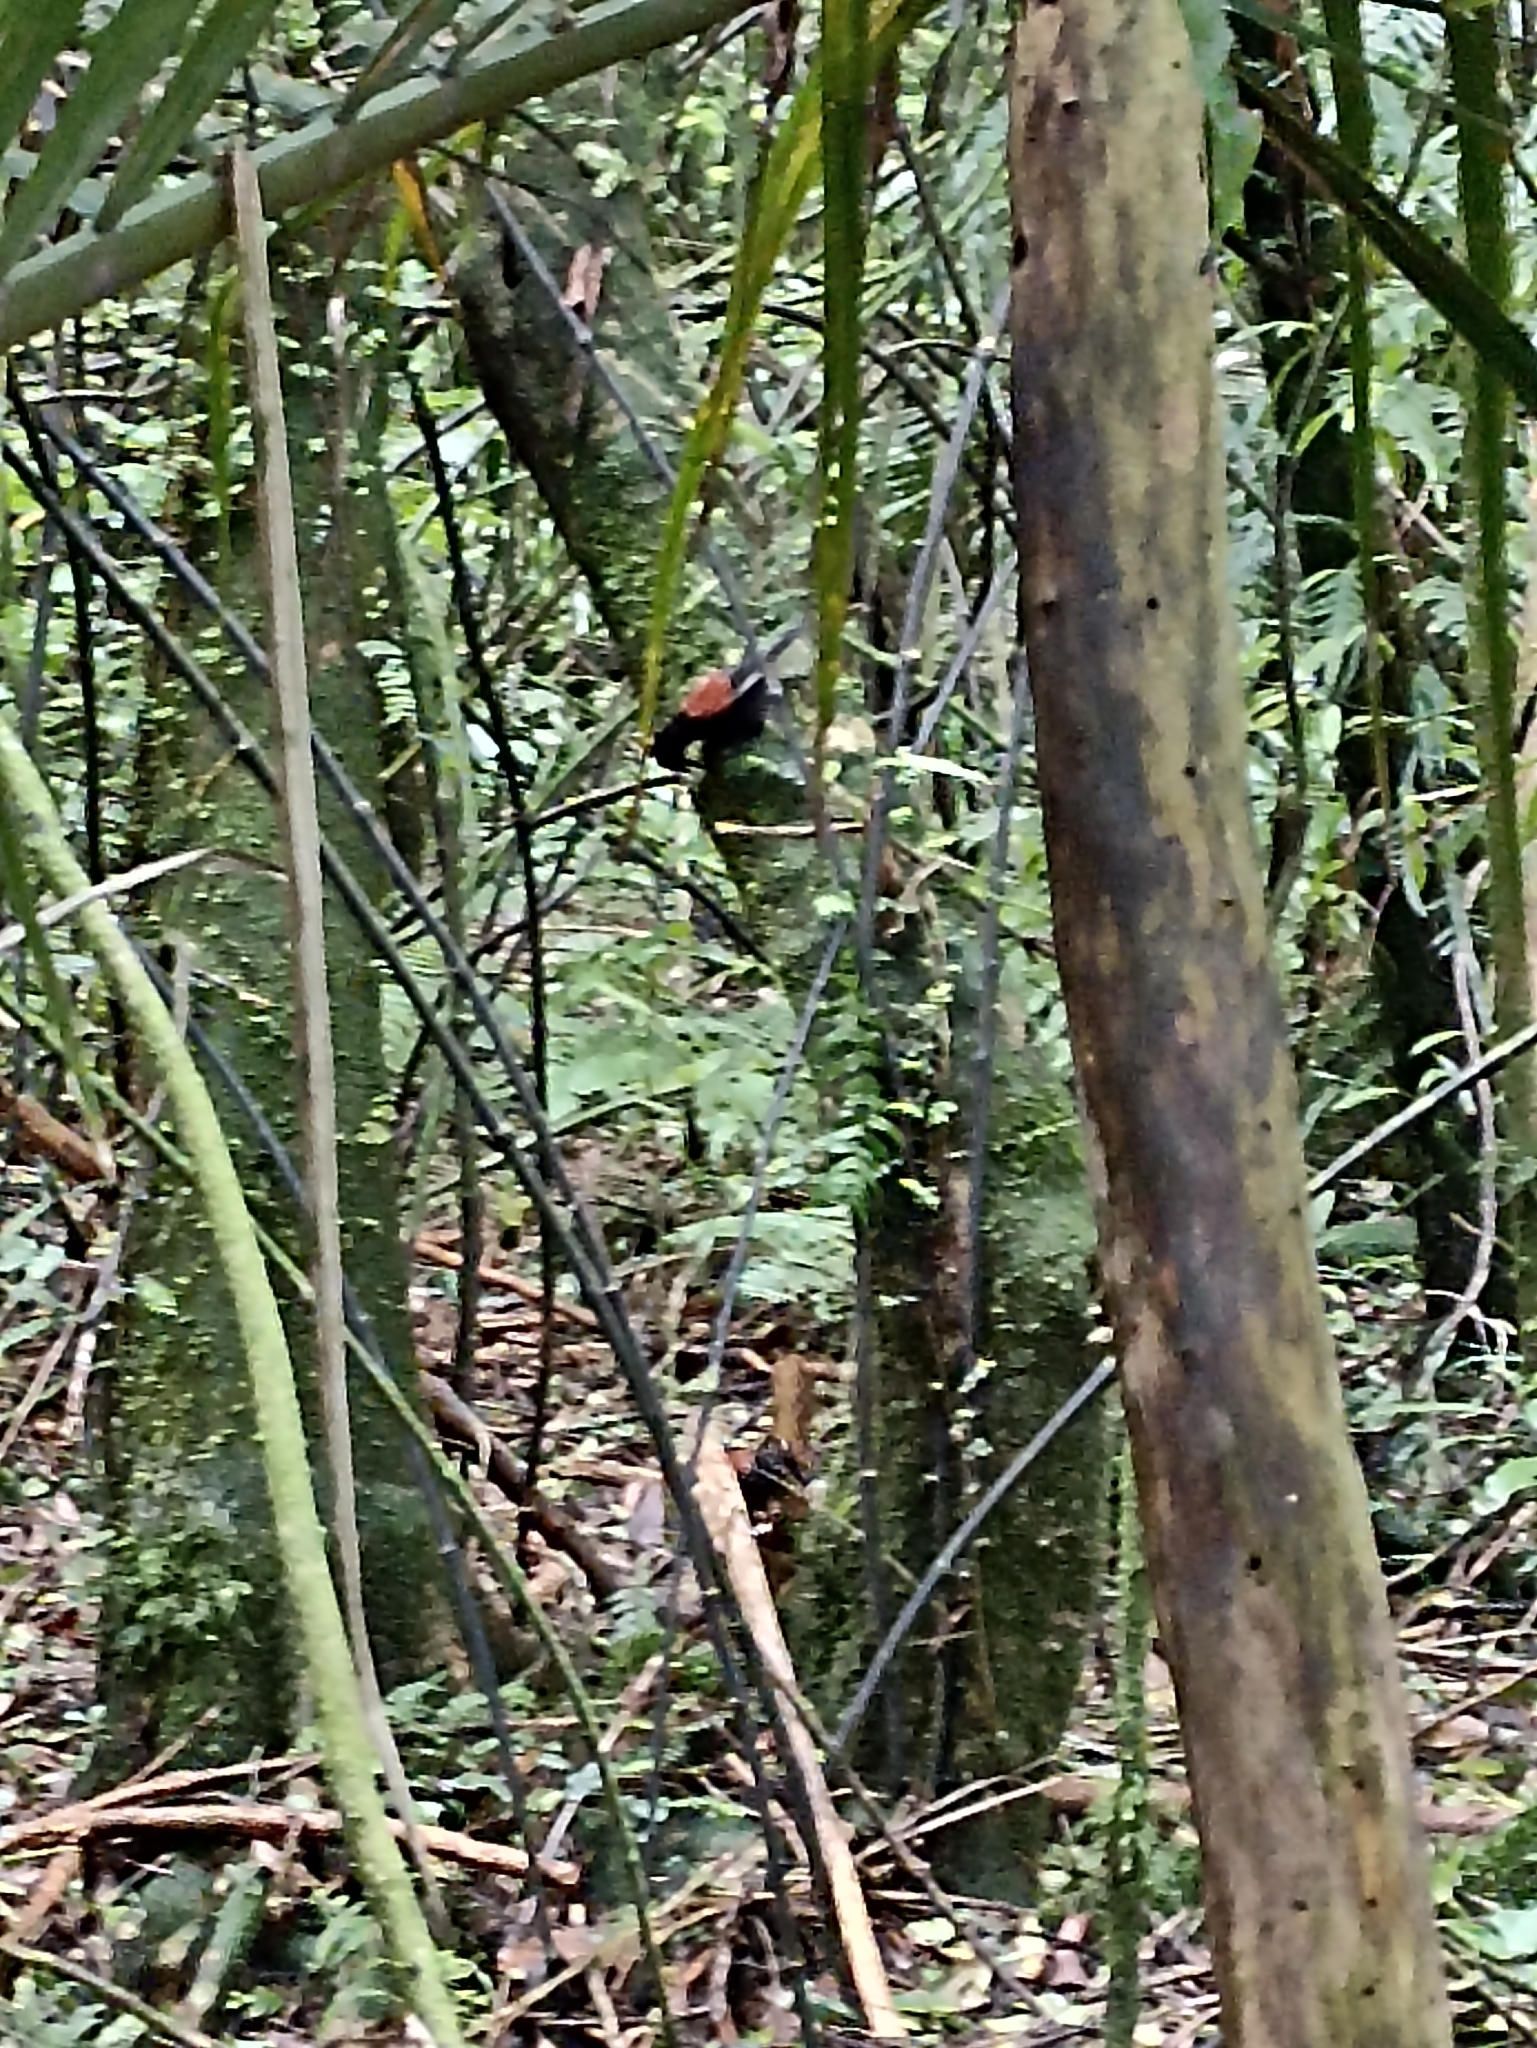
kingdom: Animalia
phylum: Chordata
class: Aves
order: Passeriformes
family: Callaeatidae
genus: Philesturnus
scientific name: Philesturnus carunculatus
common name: South island saddleback
